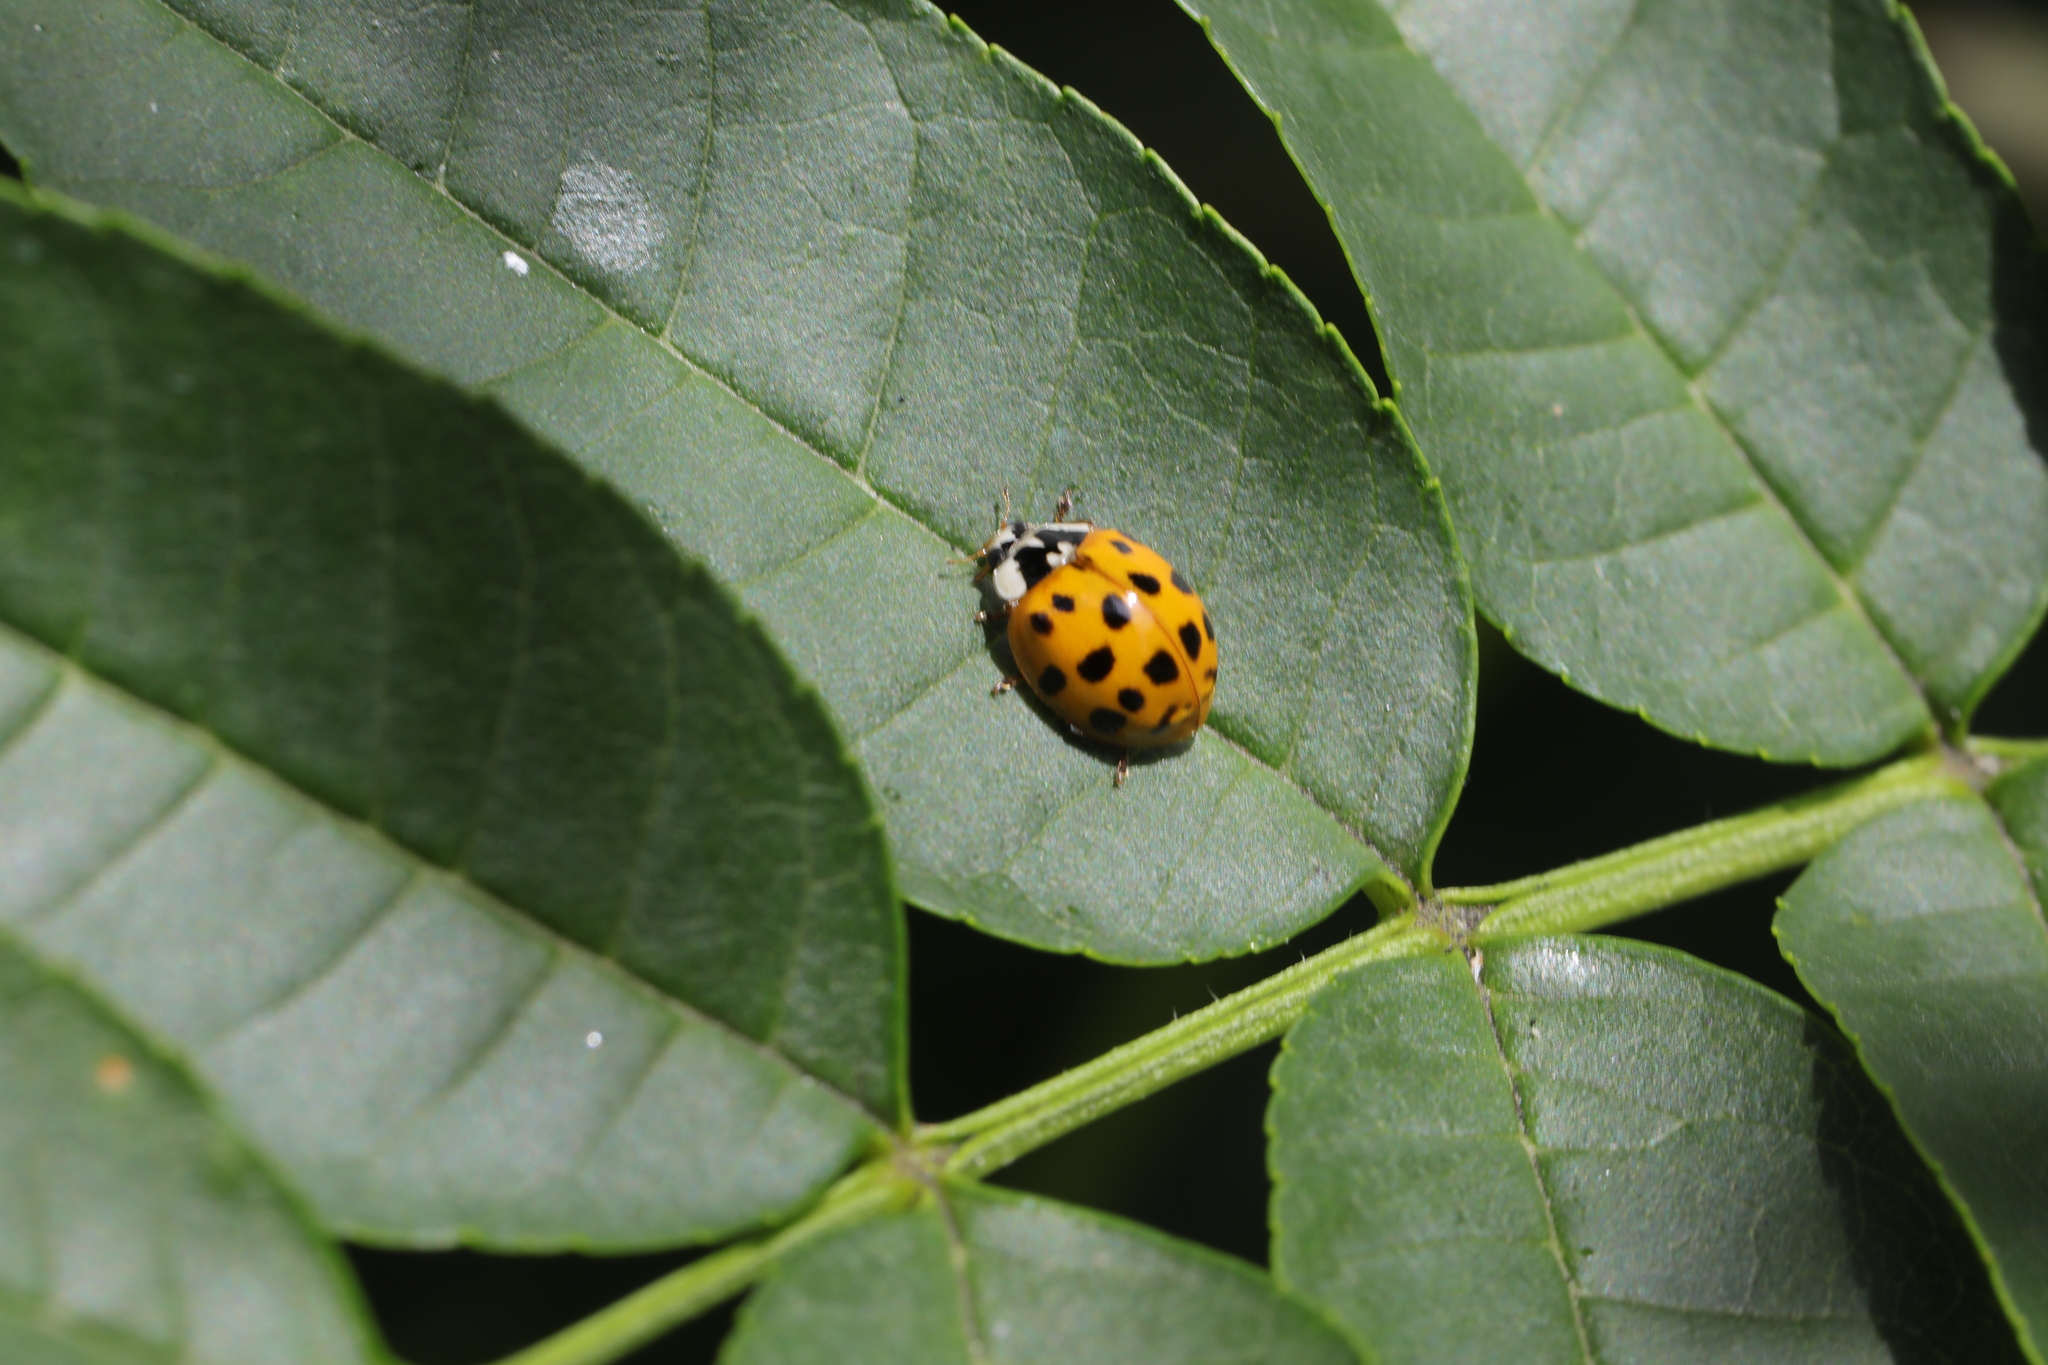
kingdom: Animalia
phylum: Arthropoda
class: Insecta
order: Coleoptera
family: Coccinellidae
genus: Harmonia
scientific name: Harmonia axyridis
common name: Harlequin ladybird
